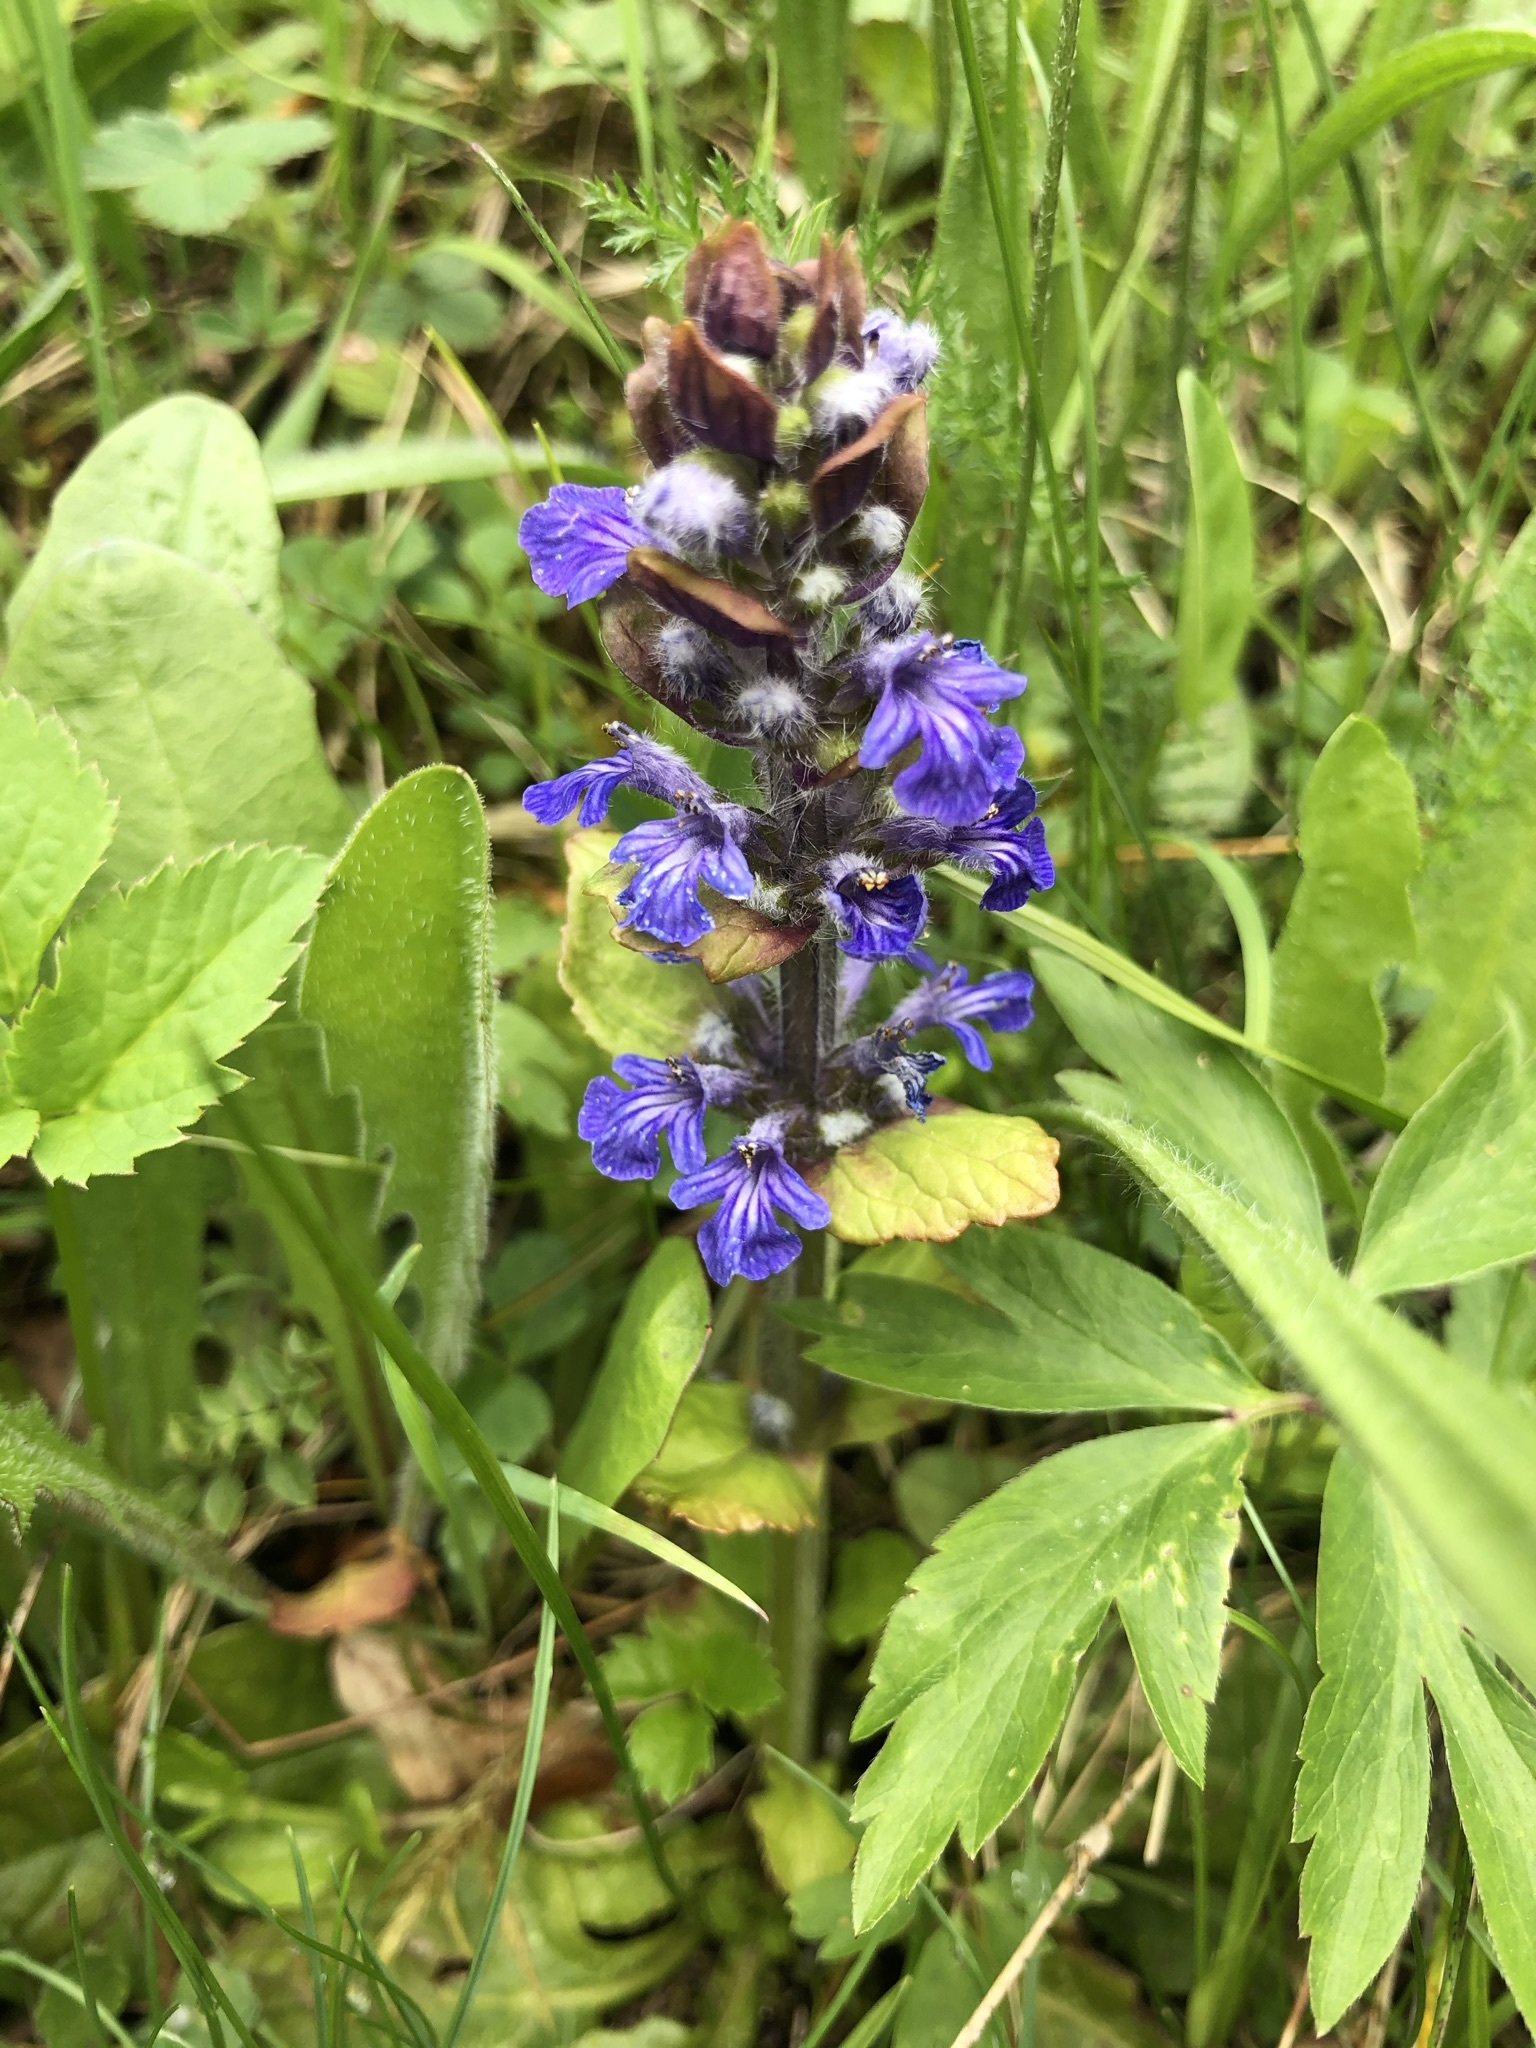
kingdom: Plantae
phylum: Tracheophyta
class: Magnoliopsida
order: Lamiales
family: Lamiaceae
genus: Ajuga
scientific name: Ajuga reptans
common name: Bugle
